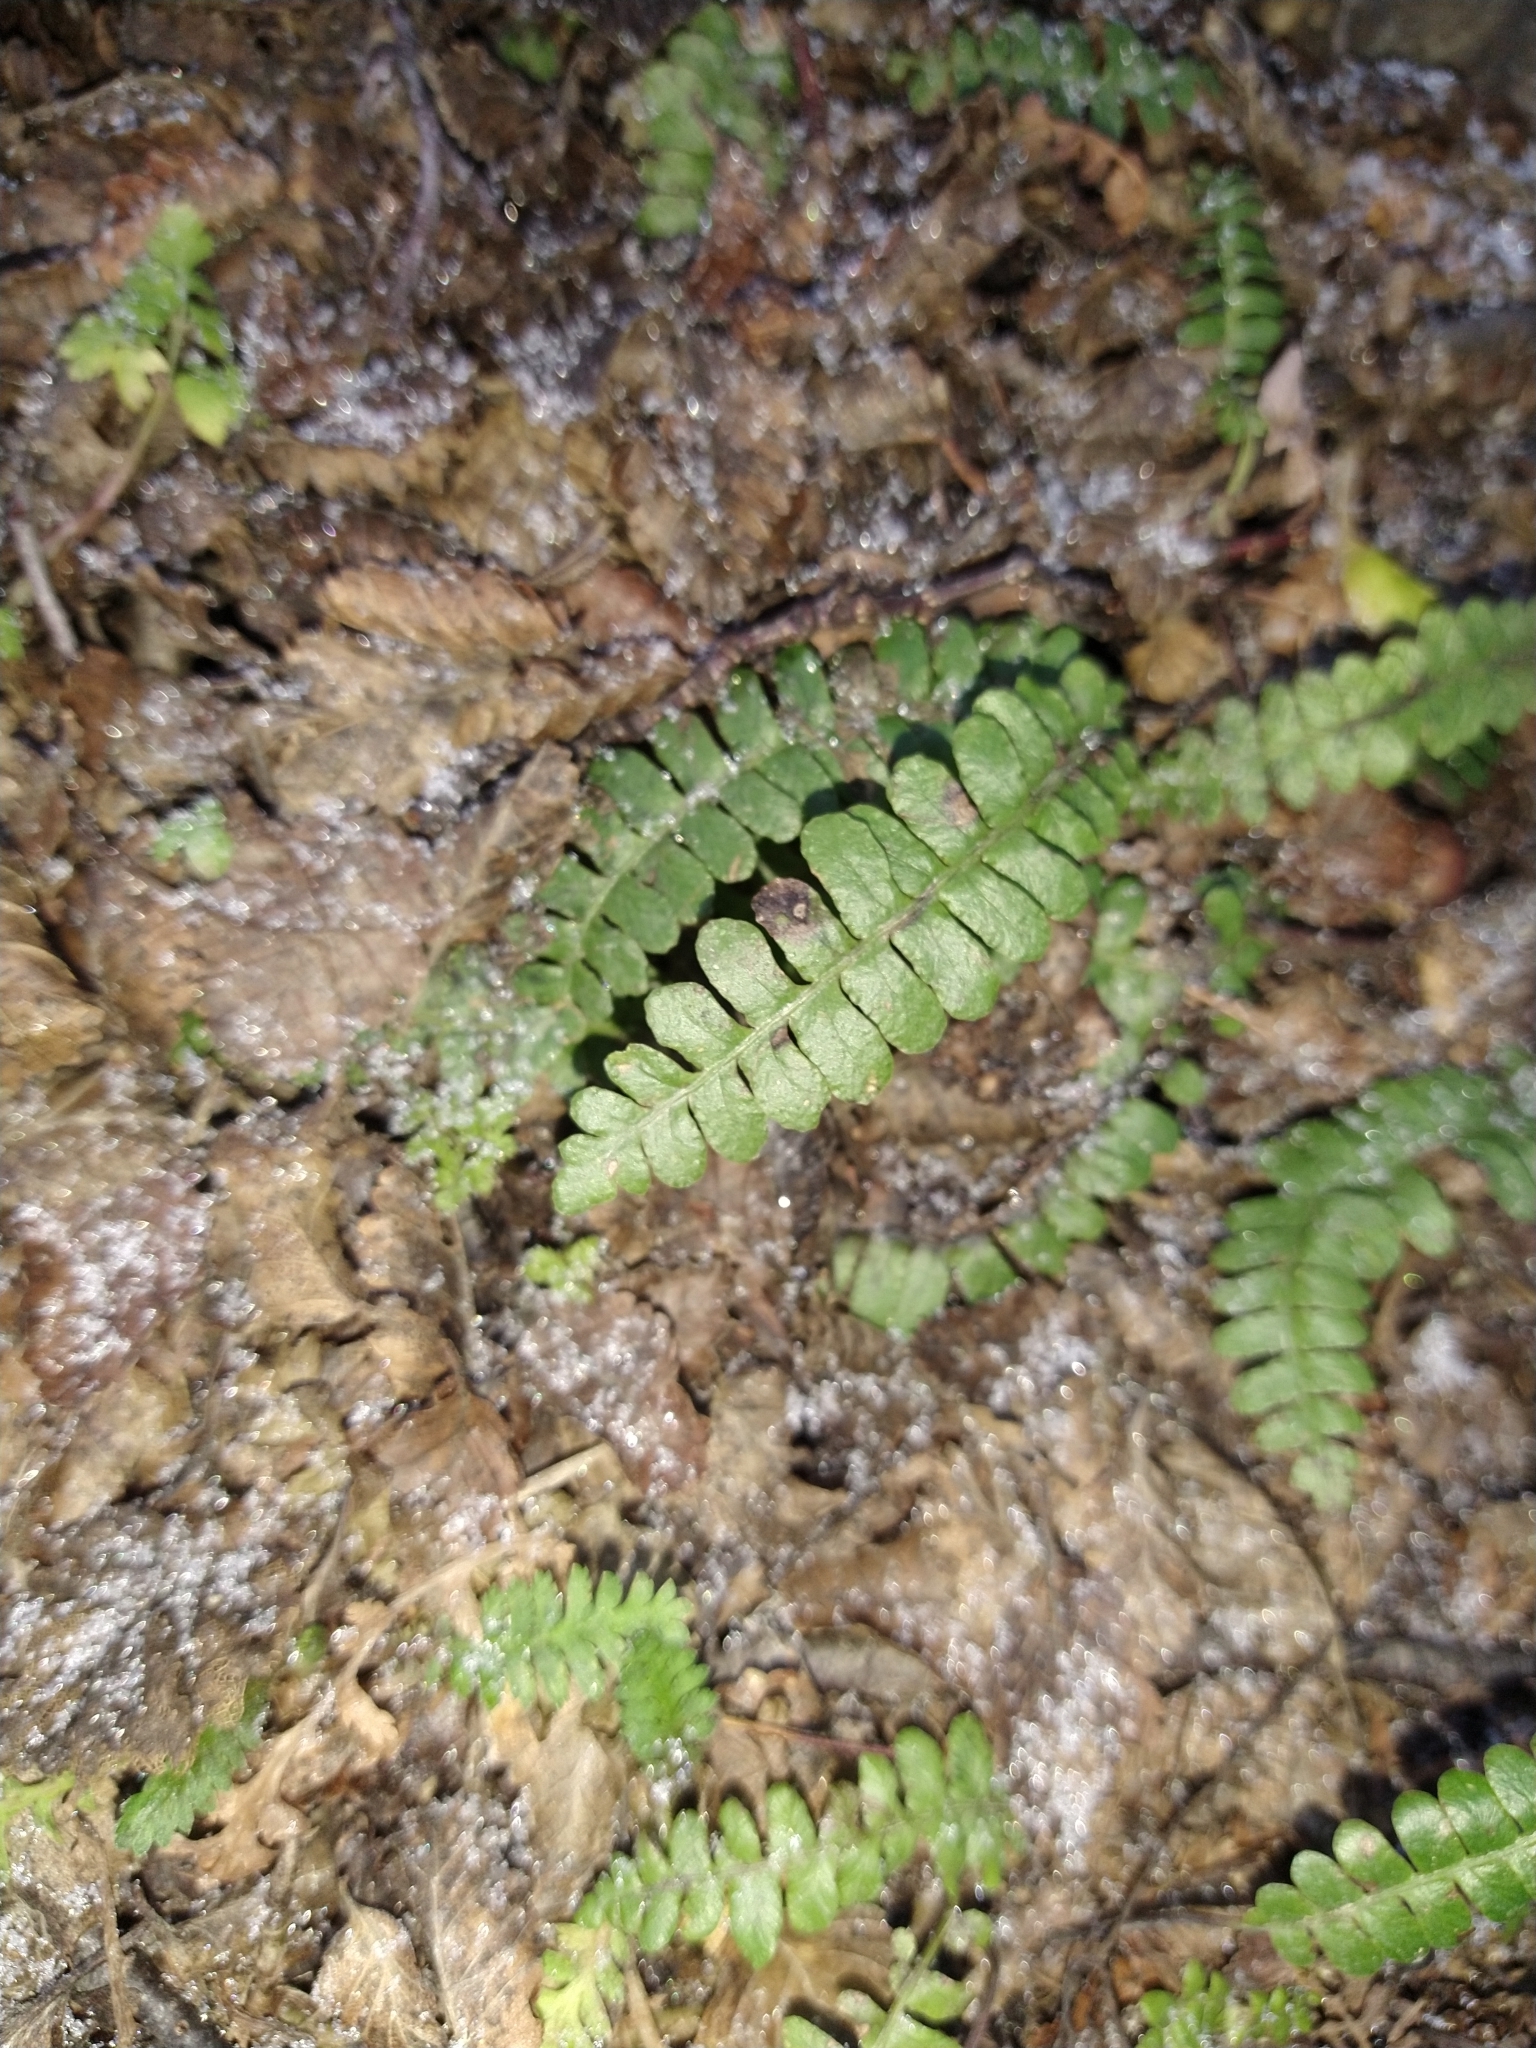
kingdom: Plantae
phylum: Tracheophyta
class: Polypodiopsida
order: Polypodiales
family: Blechnaceae
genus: Austroblechnum
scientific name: Austroblechnum penna-marina
